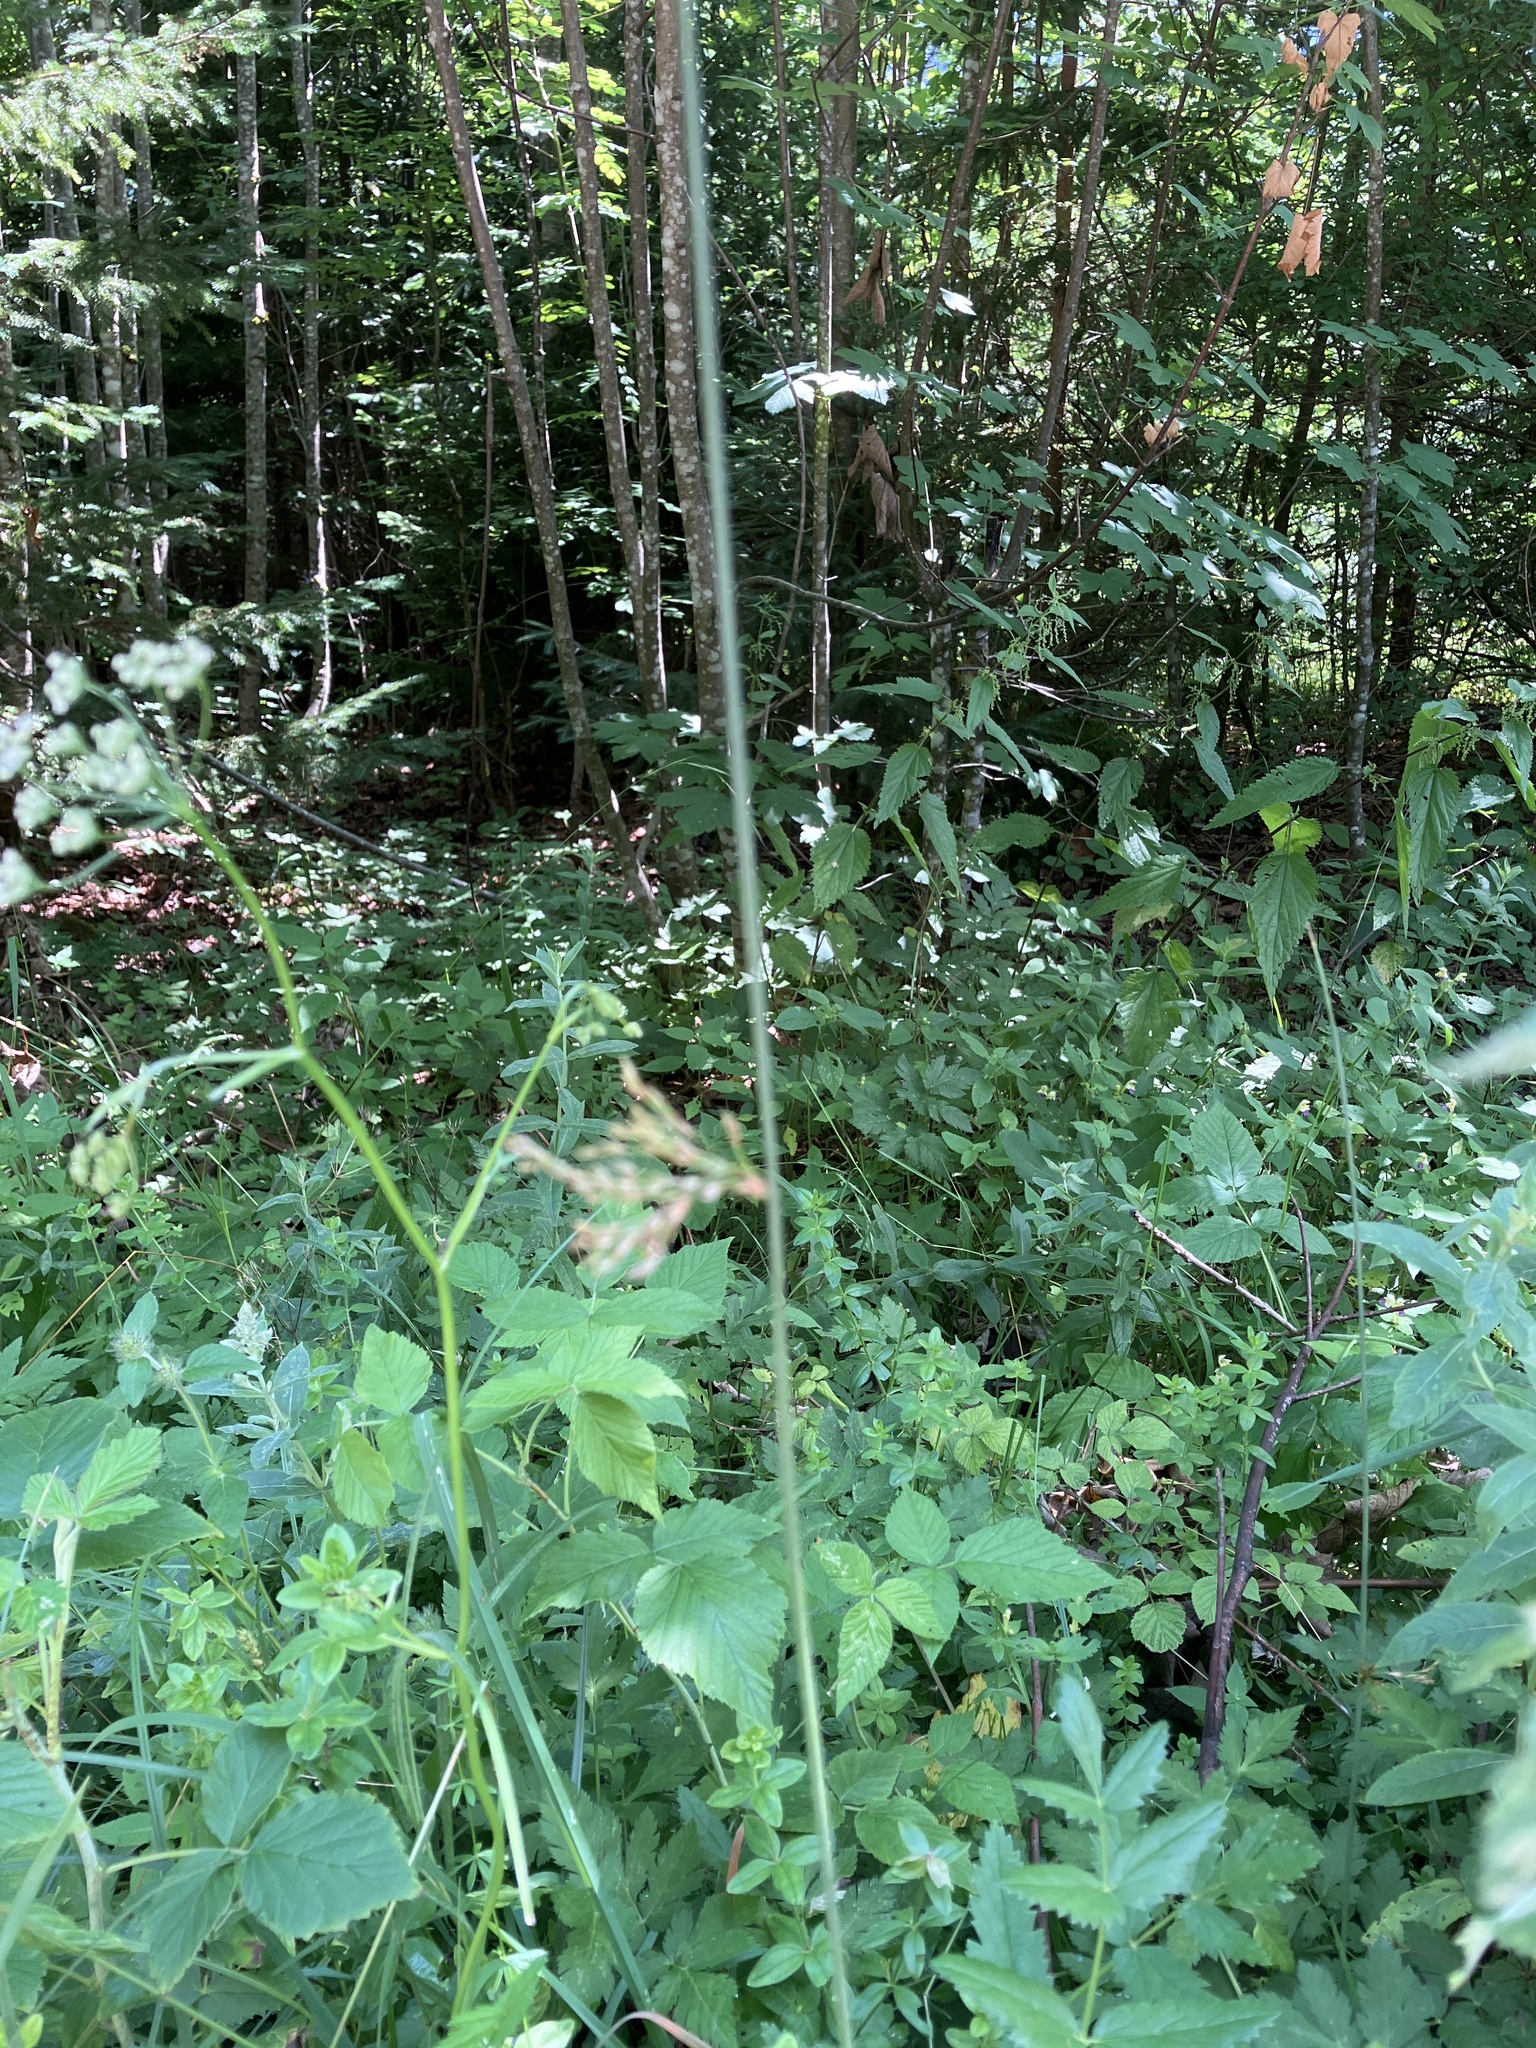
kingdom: Plantae
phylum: Tracheophyta
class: Liliopsida
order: Poales
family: Juncaceae
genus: Juncus
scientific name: Juncus inflexus
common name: Hard rush
